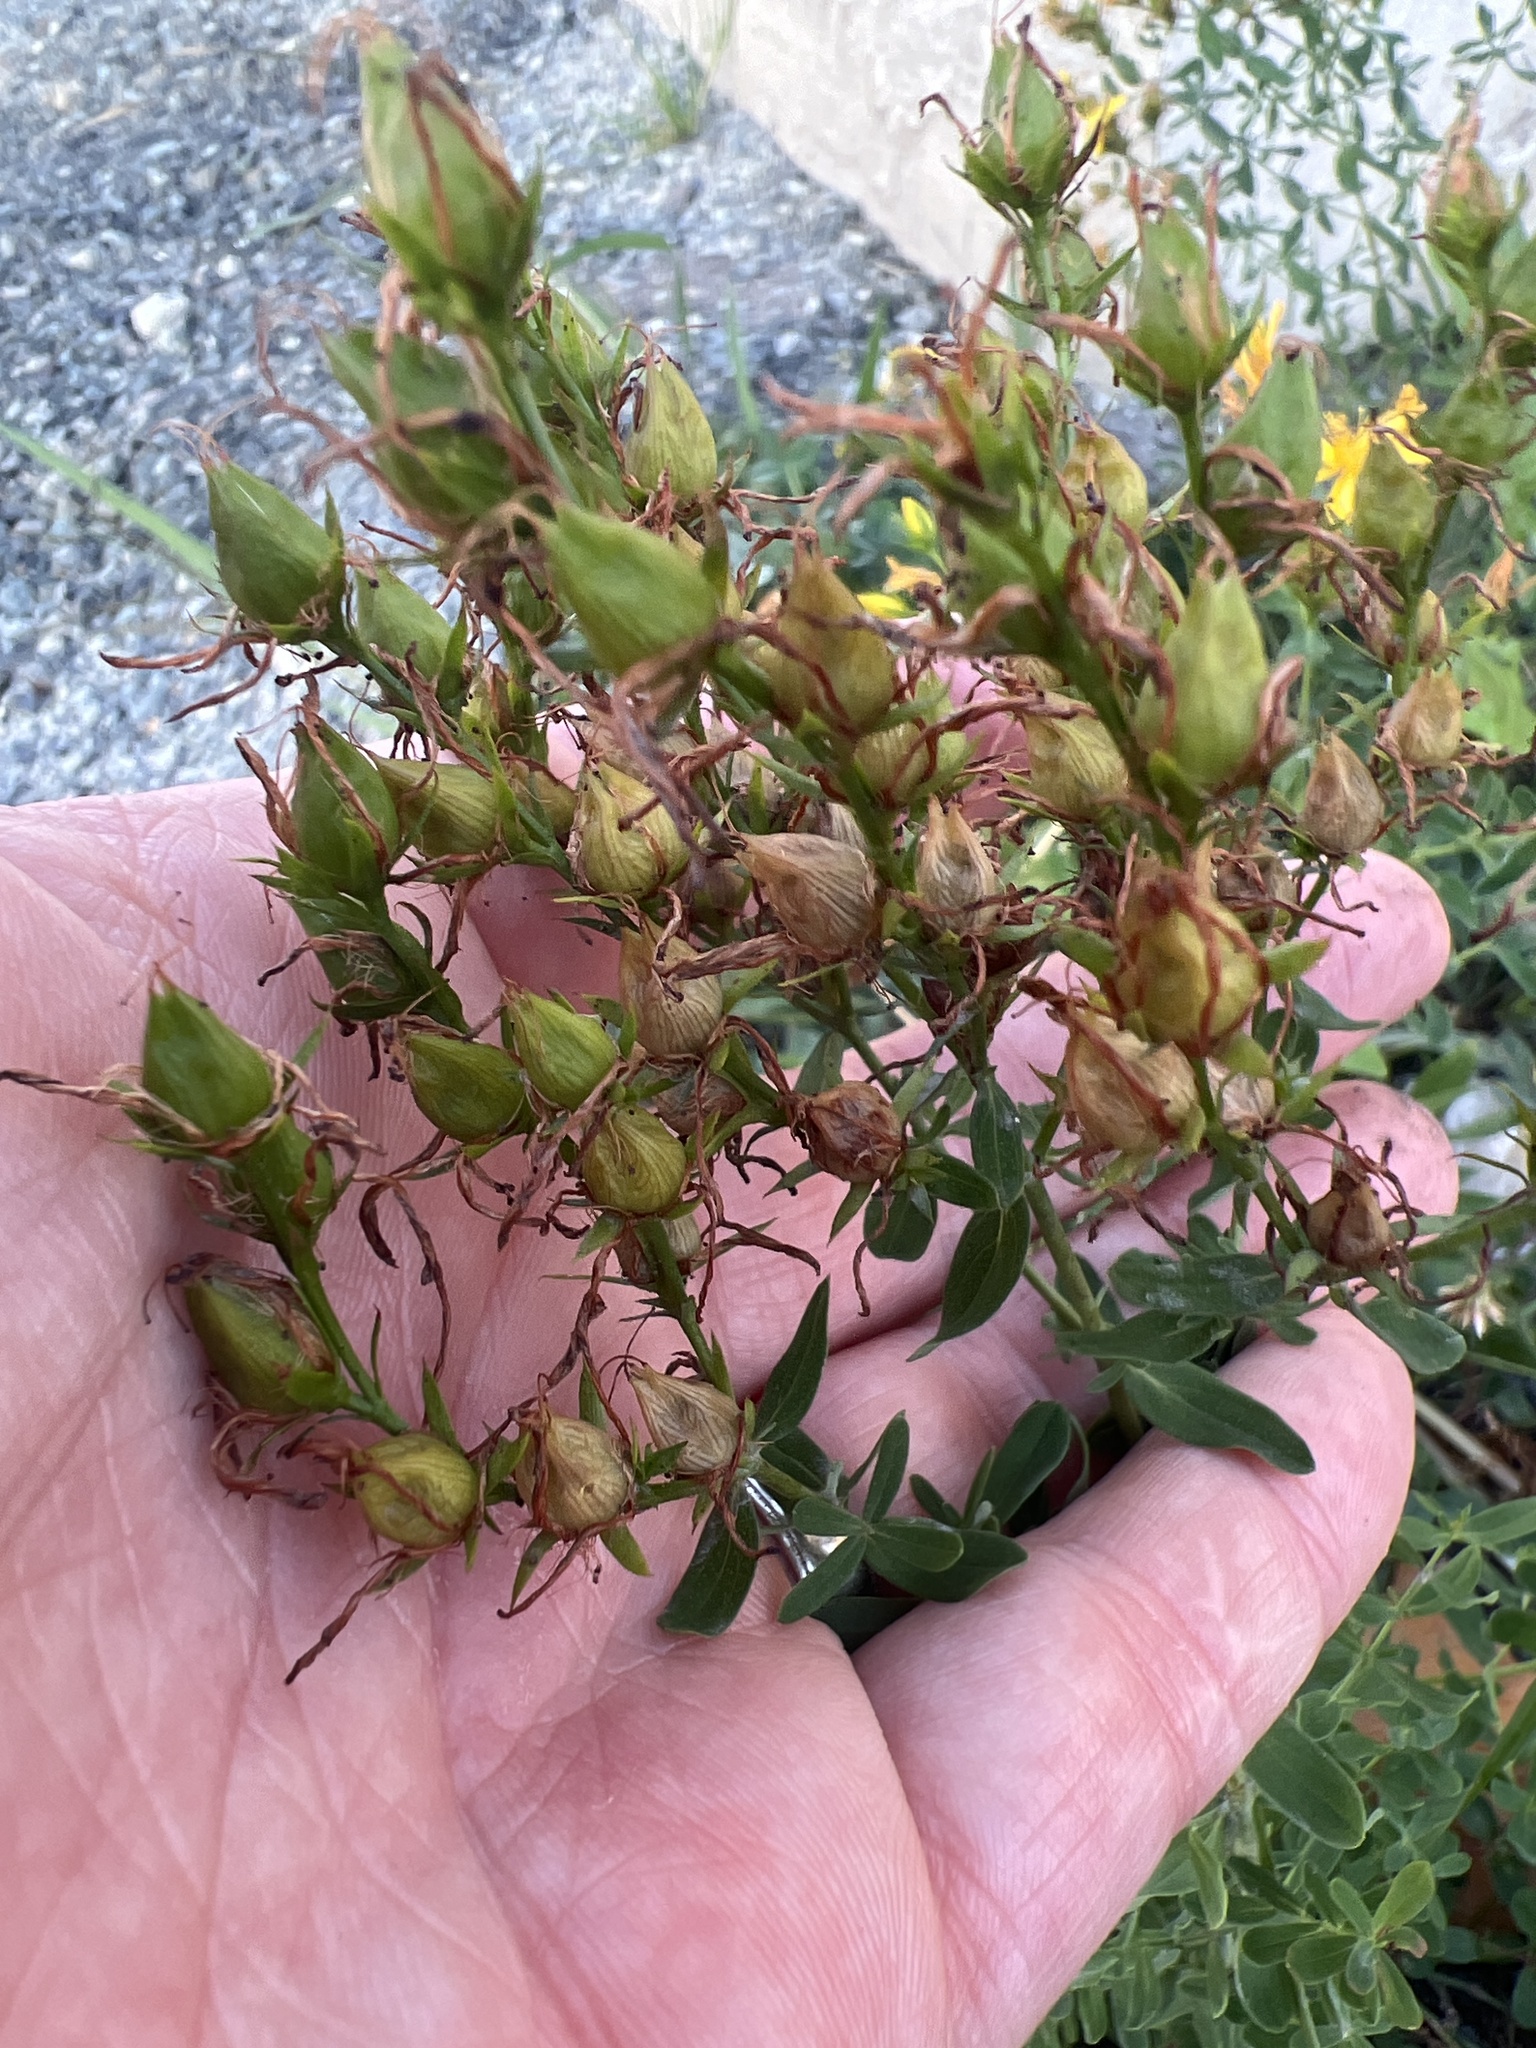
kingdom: Plantae
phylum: Tracheophyta
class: Magnoliopsida
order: Malpighiales
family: Hypericaceae
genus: Hypericum
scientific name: Hypericum perforatum
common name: Common st. johnswort
